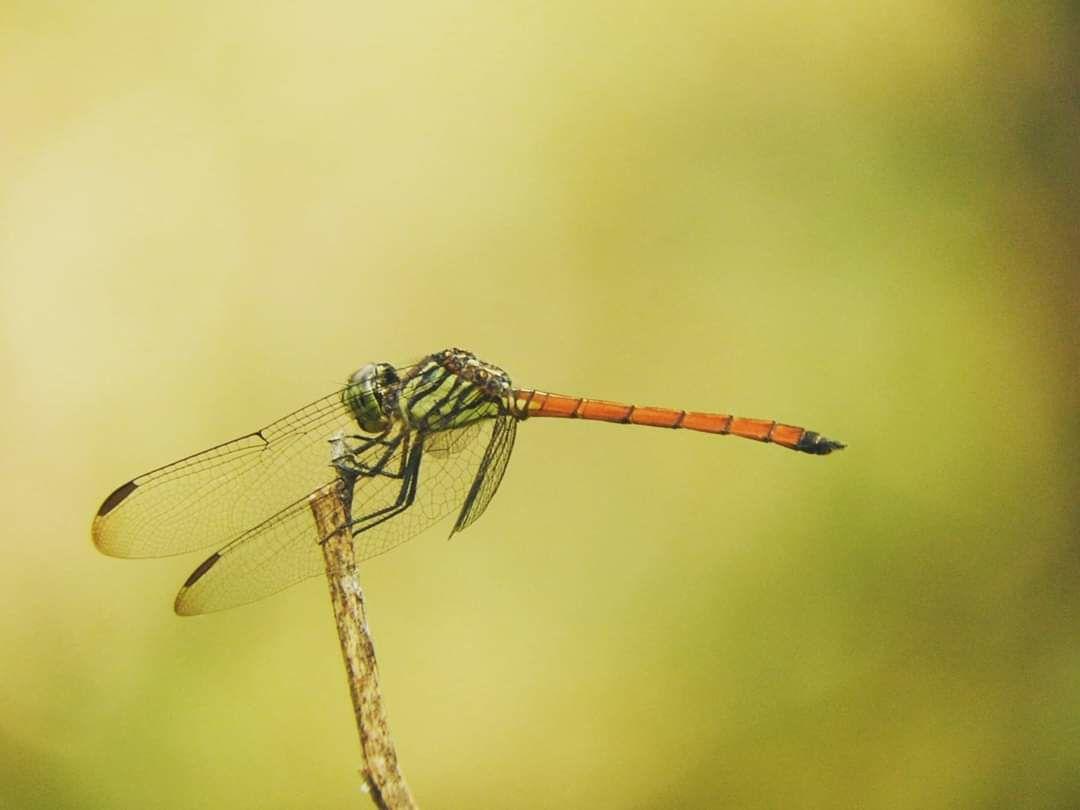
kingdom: Animalia
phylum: Arthropoda
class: Insecta
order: Odonata
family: Libellulidae
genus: Lathrecista
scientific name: Lathrecista asiatica
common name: Scarlet grenadier
